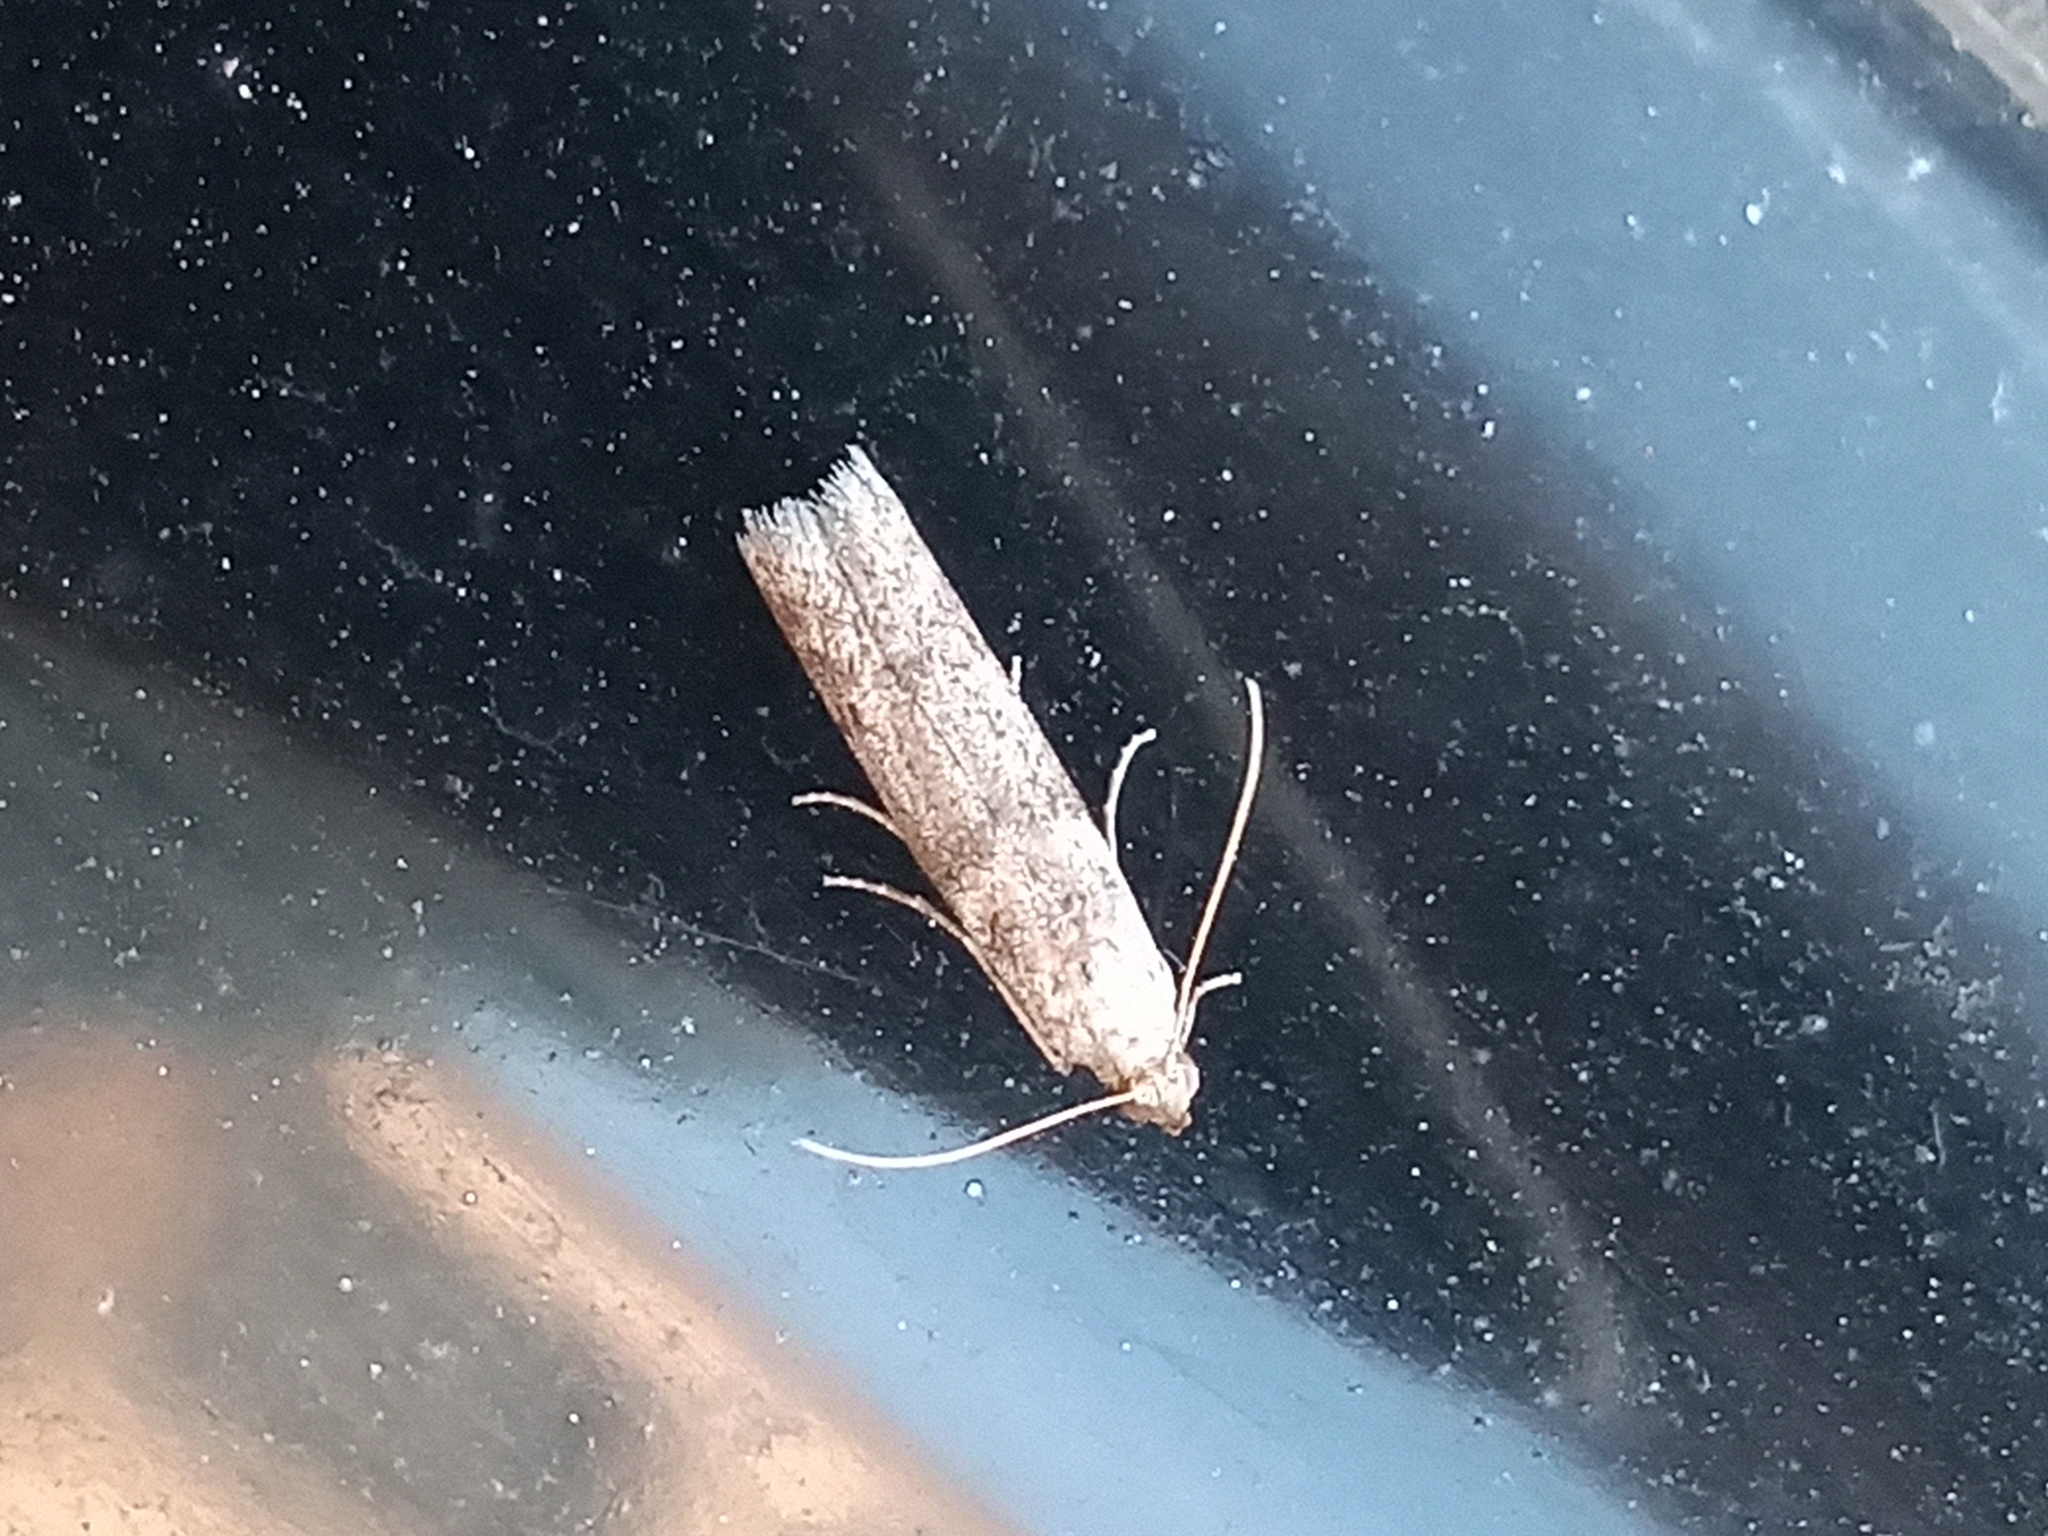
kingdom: Animalia
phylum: Arthropoda
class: Insecta
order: Lepidoptera
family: Pyralidae
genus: Ephestiodes
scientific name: Ephestiodes gilvescentella
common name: Moth
